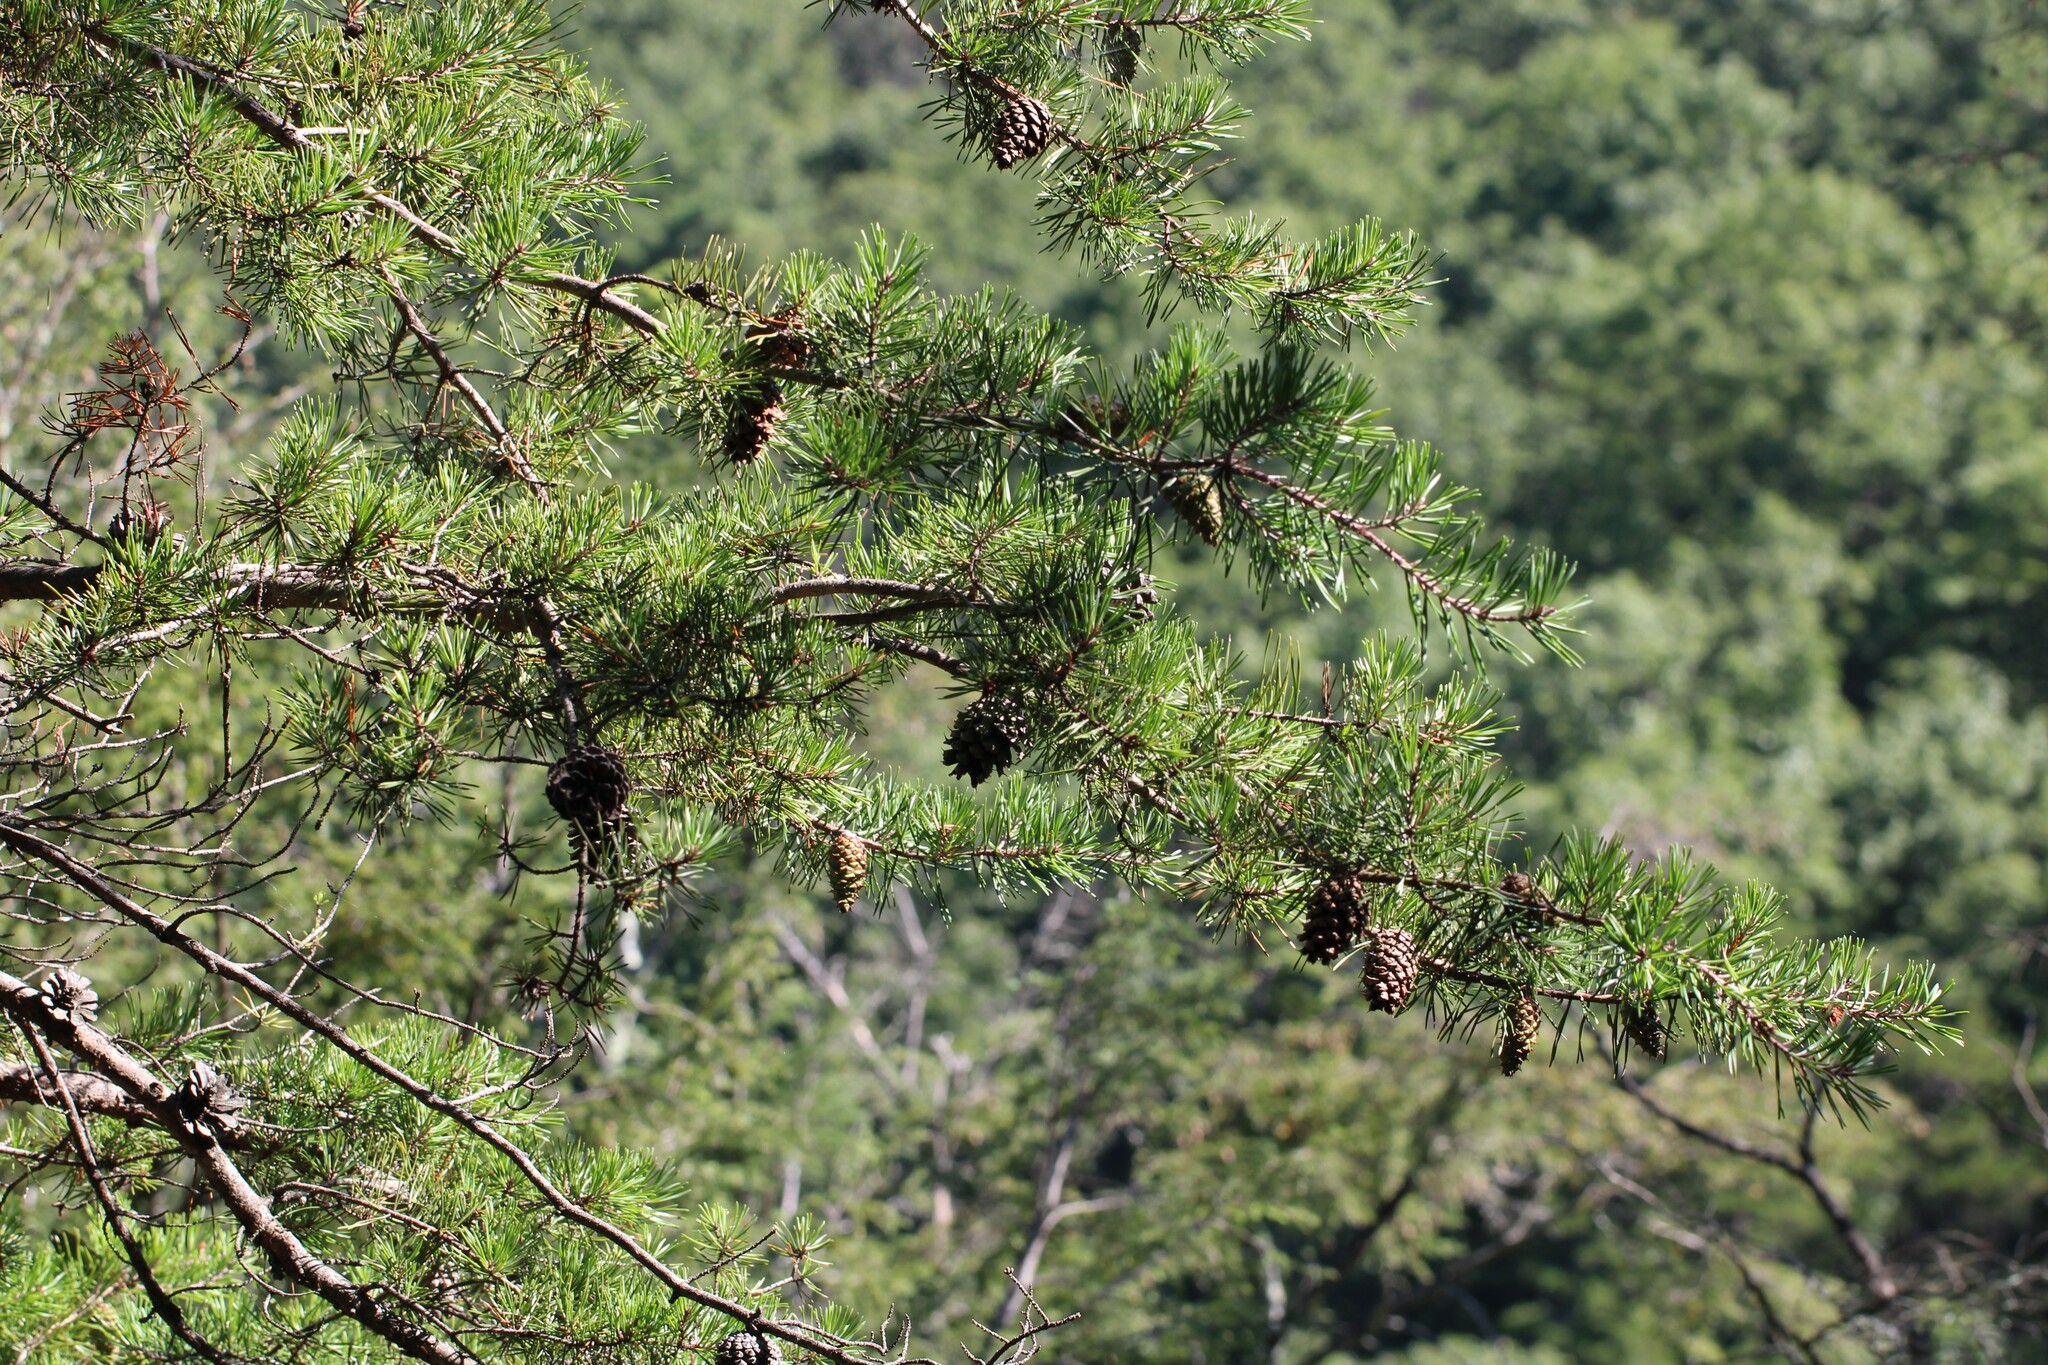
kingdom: Plantae
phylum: Tracheophyta
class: Pinopsida
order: Pinales
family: Pinaceae
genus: Pinus
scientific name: Pinus virginiana
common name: Scrub pine
